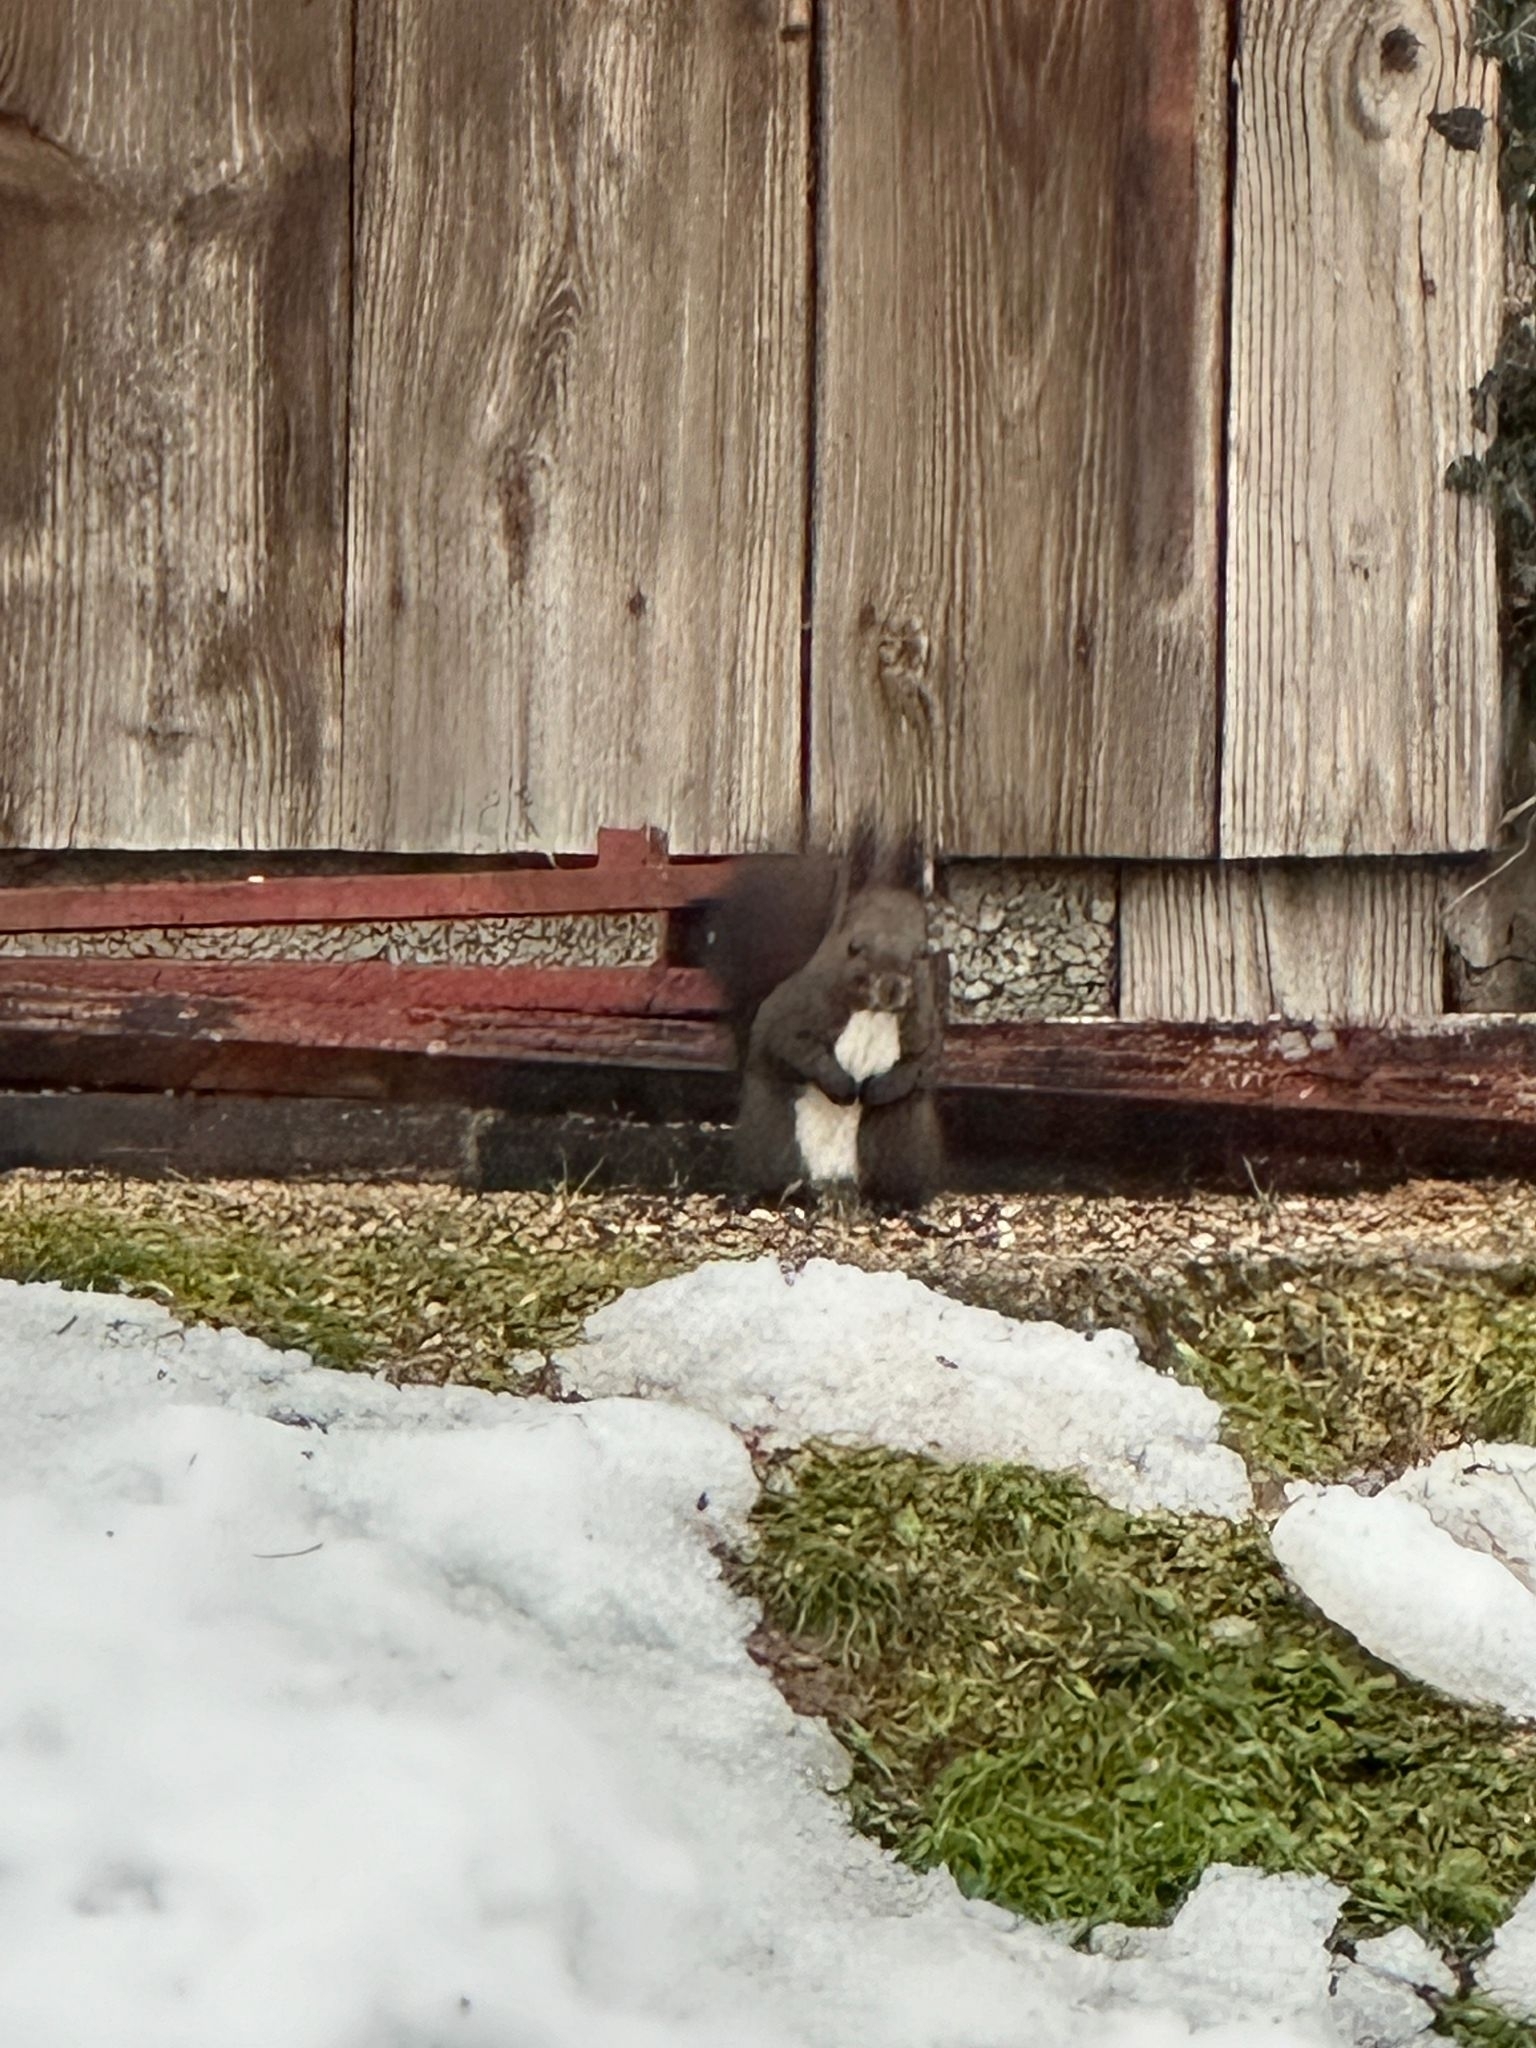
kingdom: Animalia
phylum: Chordata
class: Mammalia
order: Rodentia
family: Sciuridae
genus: Sciurus
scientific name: Sciurus vulgaris
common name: Eurasian red squirrel
